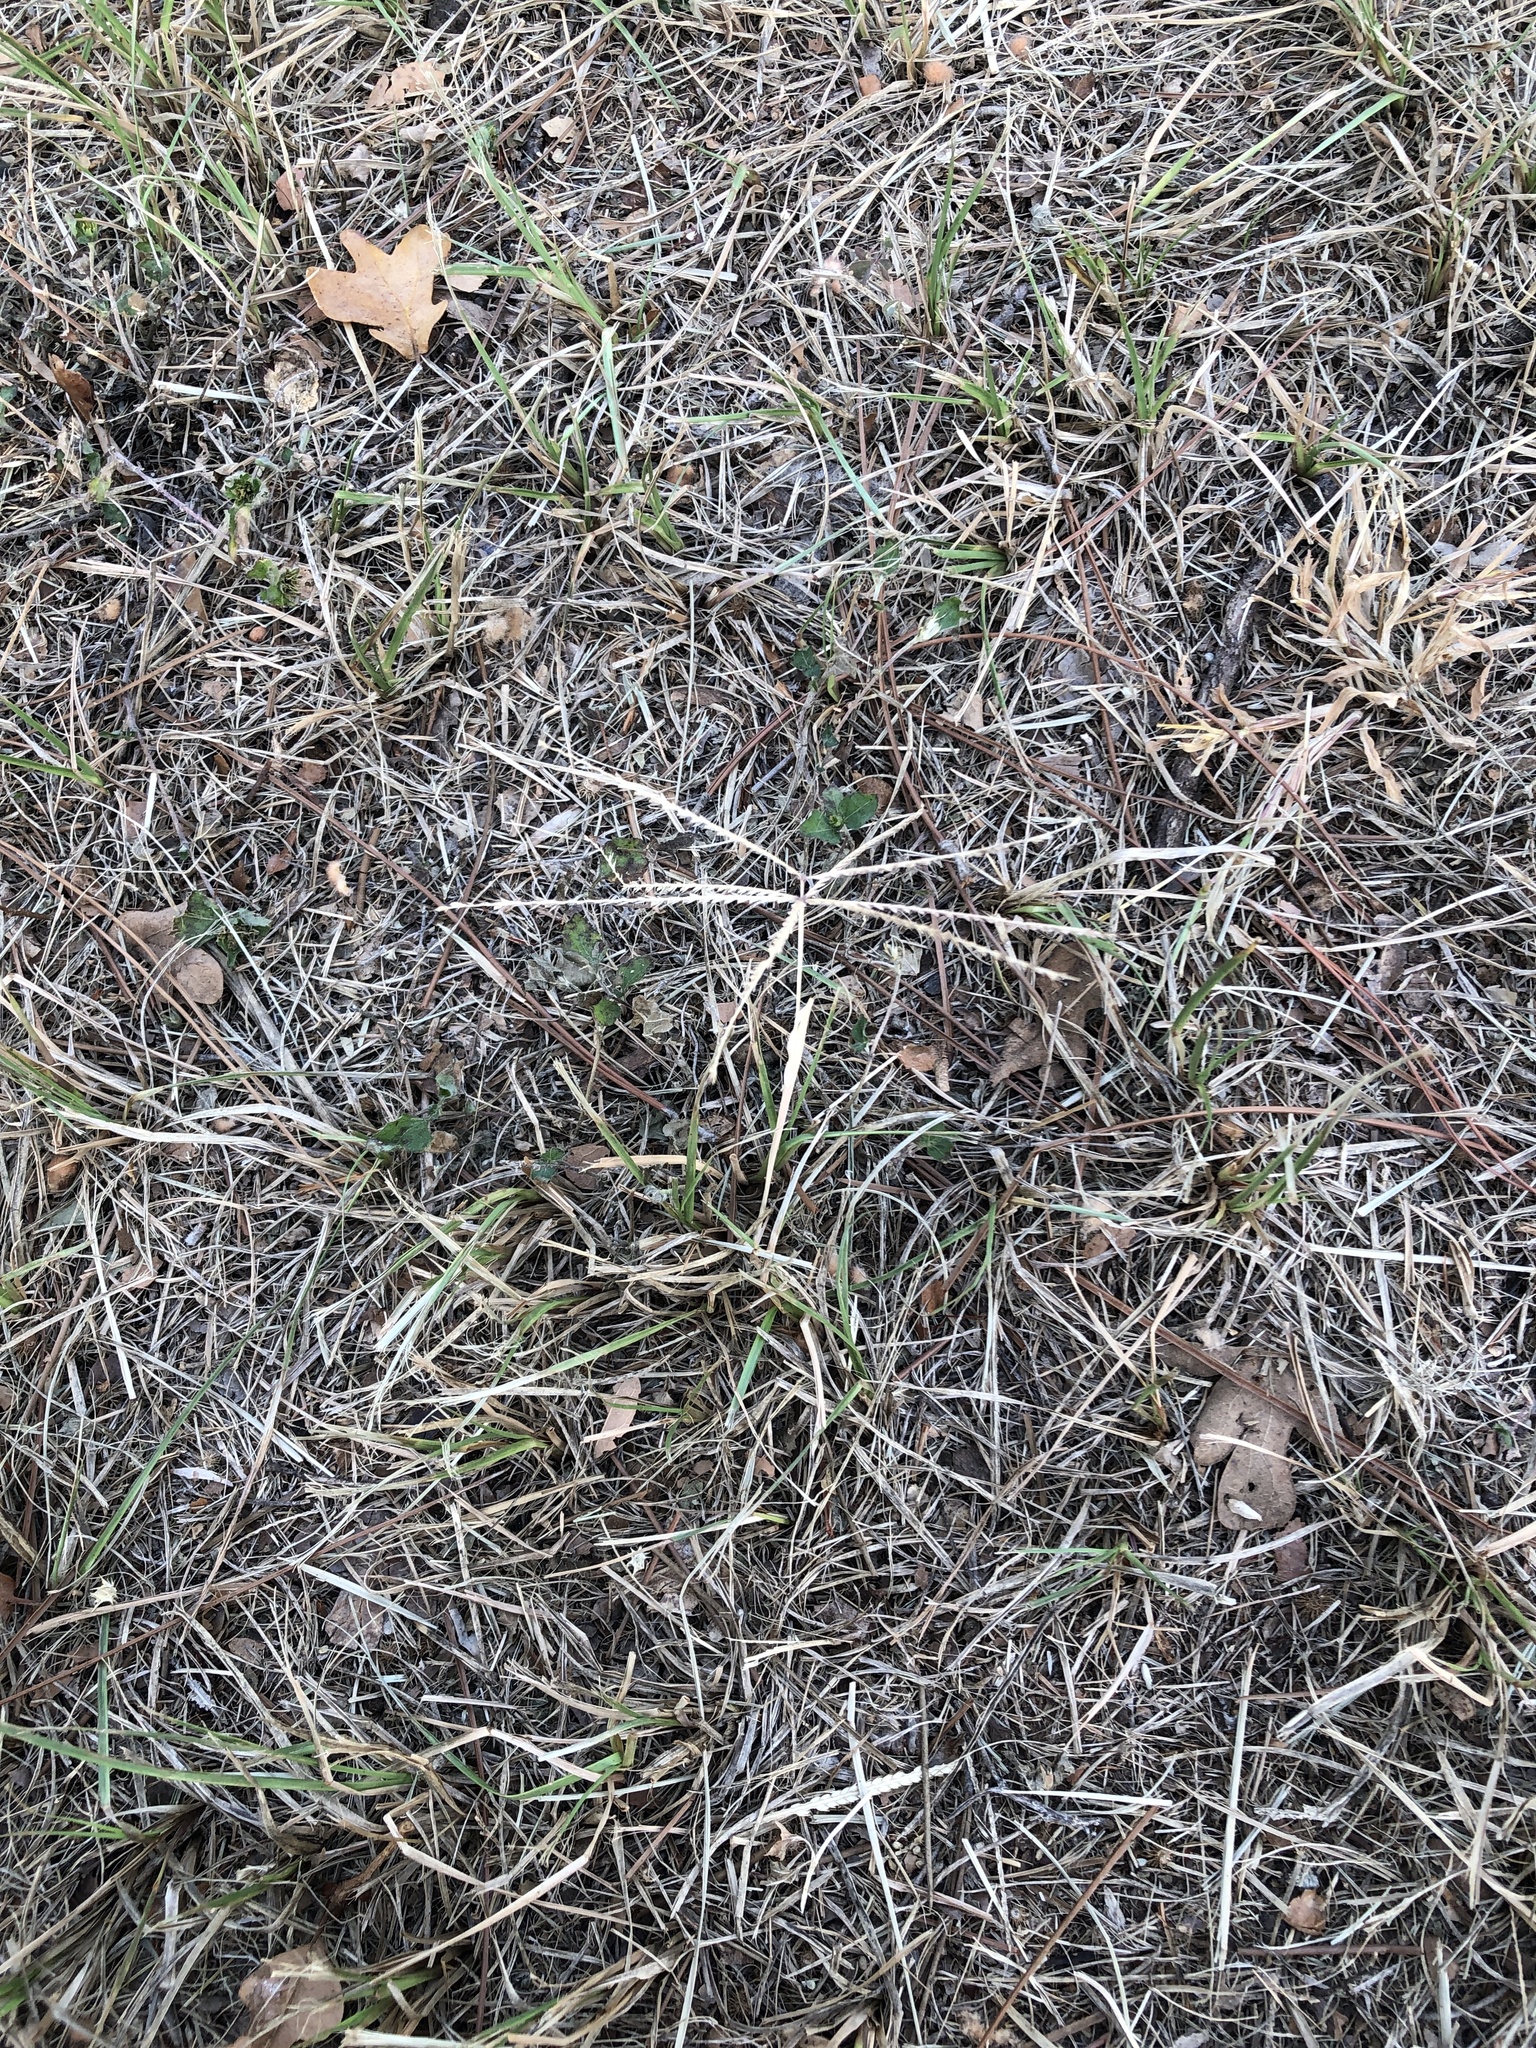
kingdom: Plantae
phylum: Tracheophyta
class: Liliopsida
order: Poales
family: Poaceae
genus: Chloris
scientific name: Chloris verticillata
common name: Tumble windmill grass
